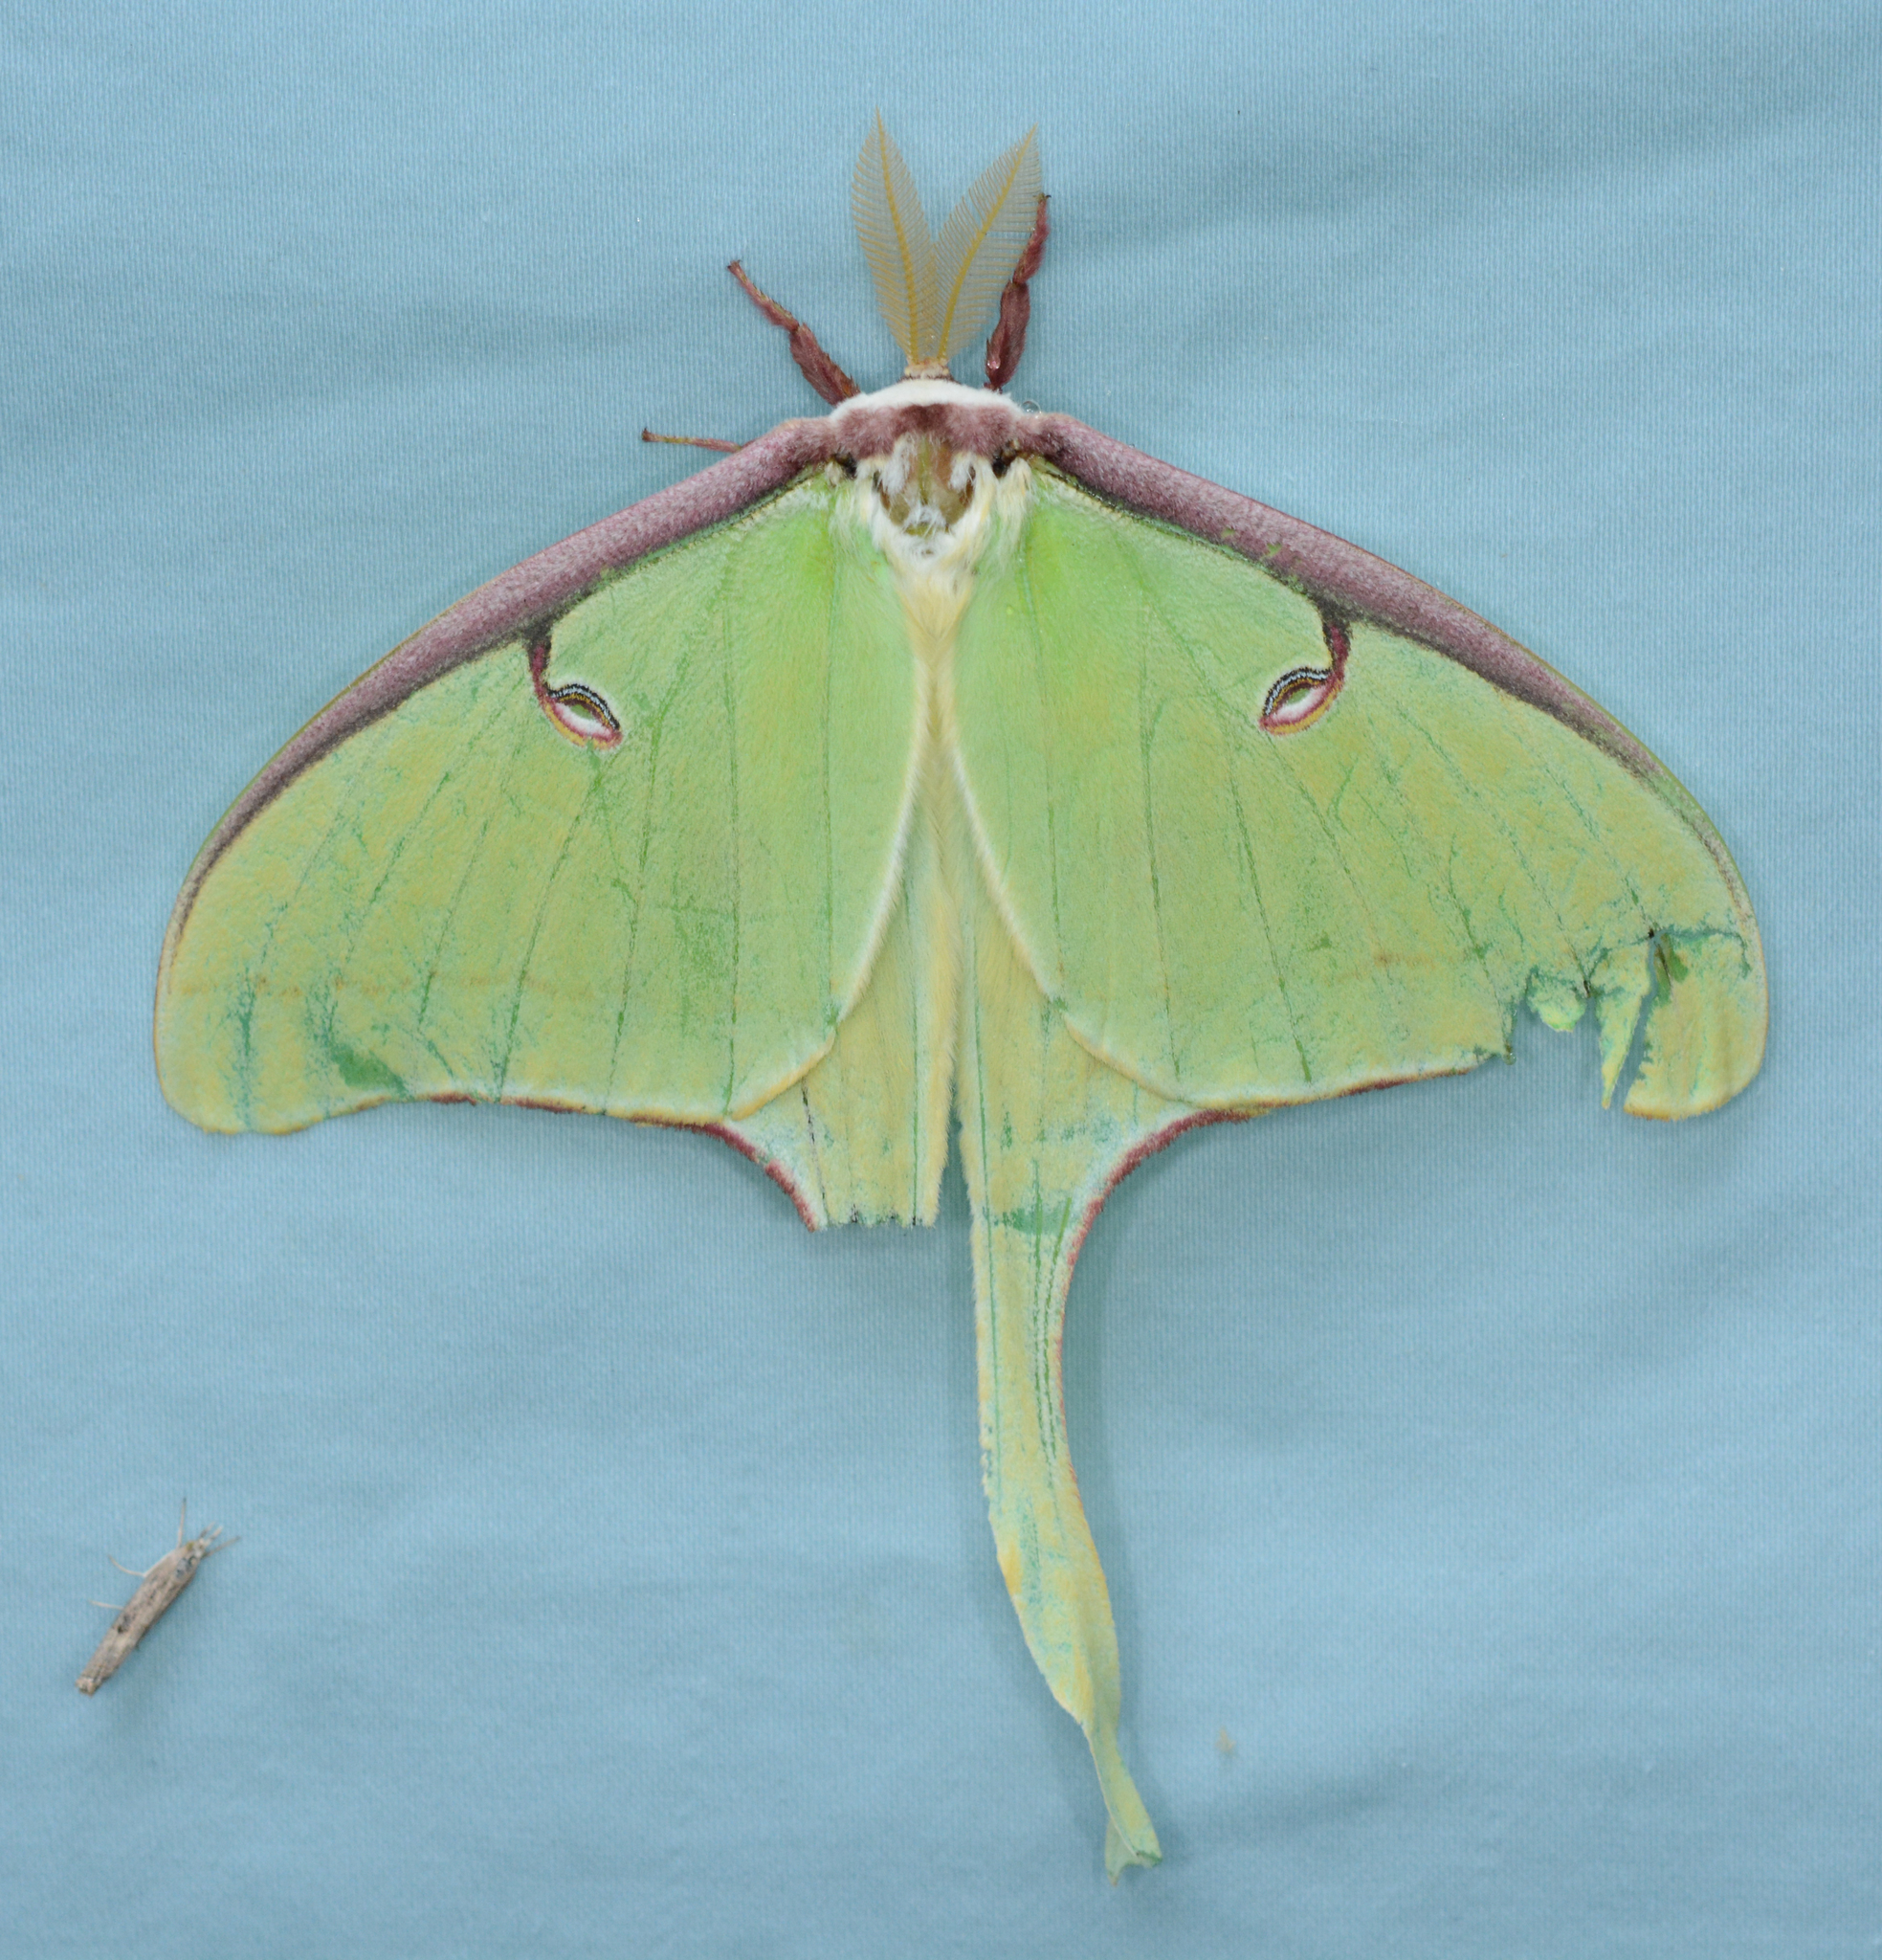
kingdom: Animalia
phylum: Arthropoda
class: Insecta
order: Lepidoptera
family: Saturniidae
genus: Actias
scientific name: Actias luna
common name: Luna moth
